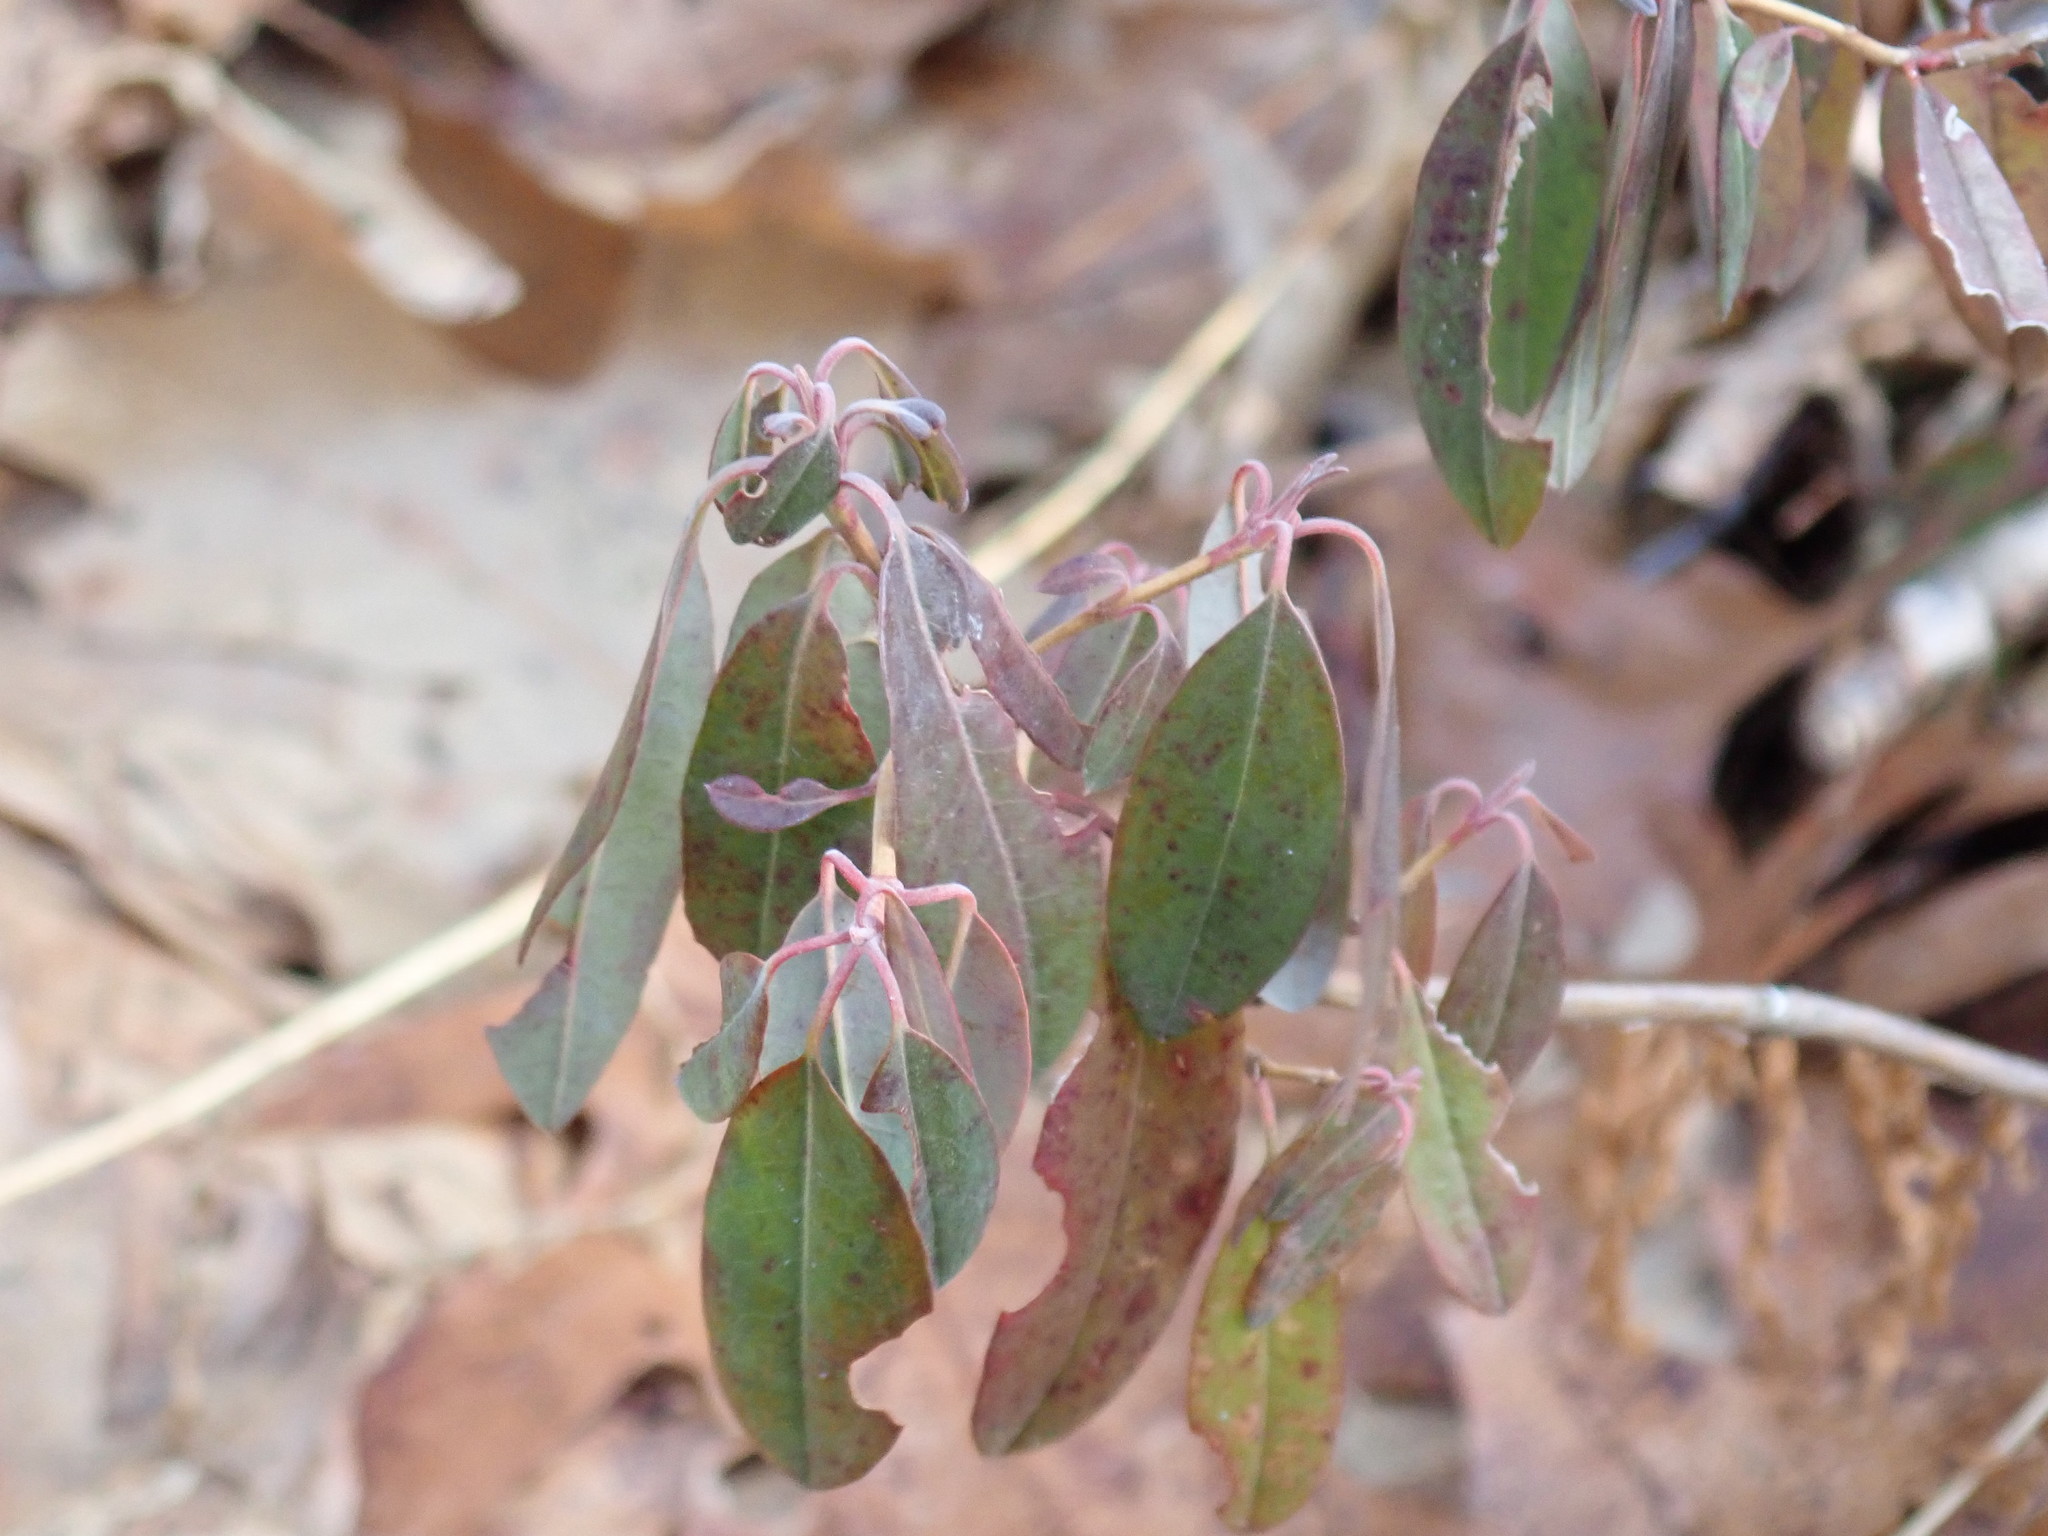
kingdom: Plantae
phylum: Tracheophyta
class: Magnoliopsida
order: Ericales
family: Ericaceae
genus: Kalmia
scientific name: Kalmia angustifolia
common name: Sheep-laurel
